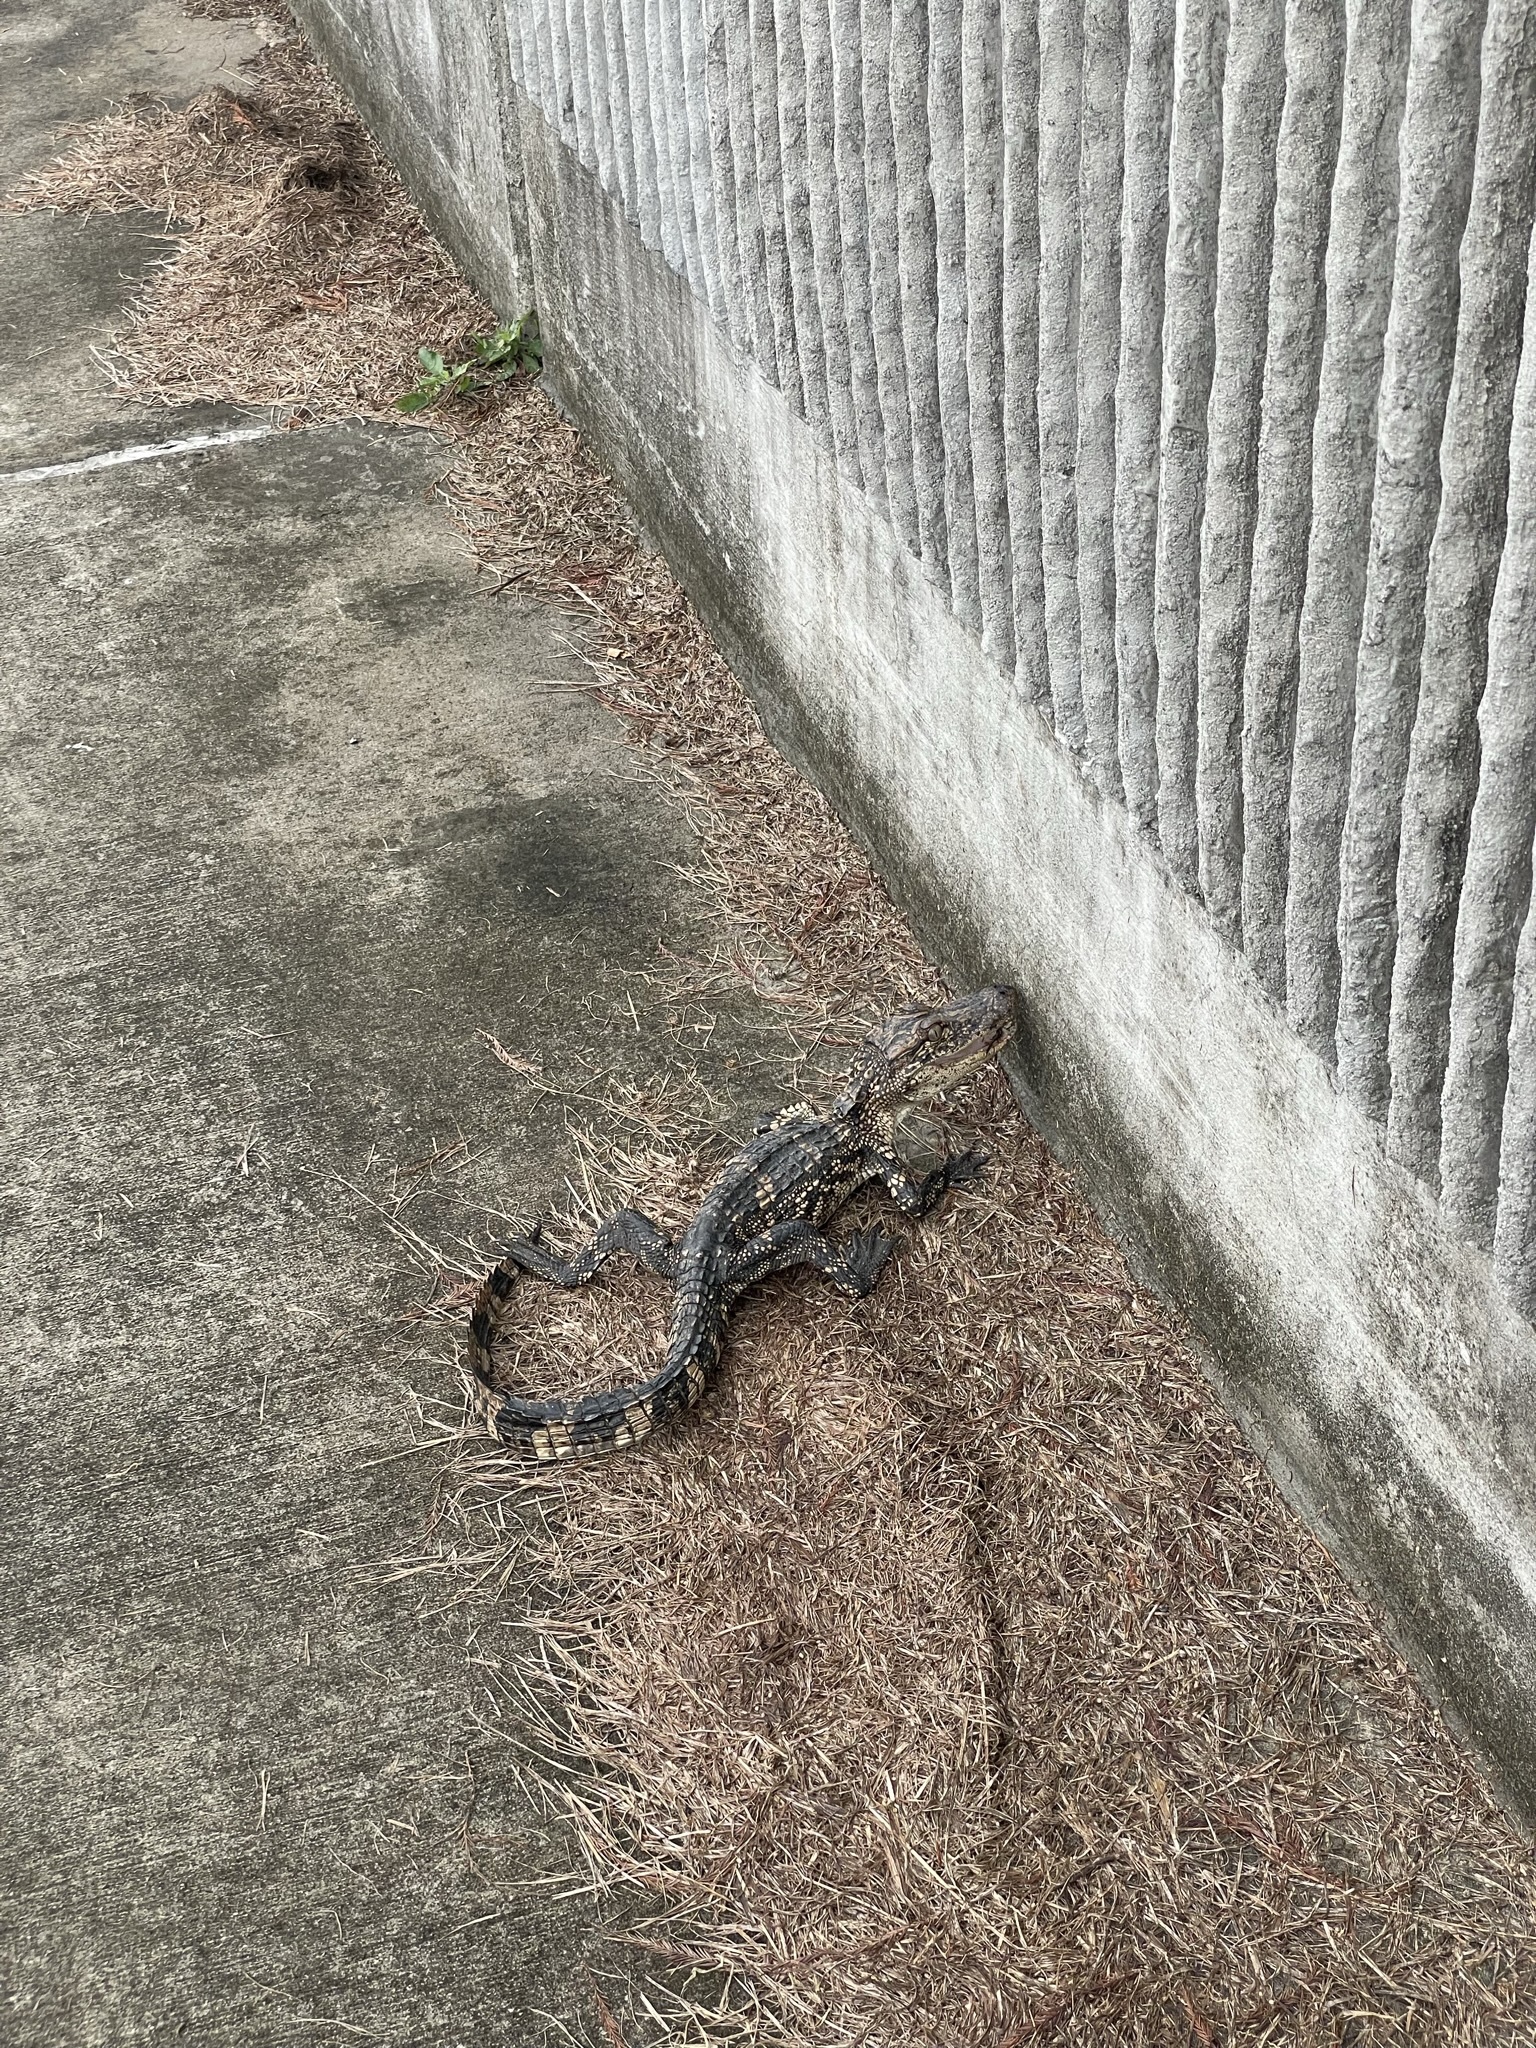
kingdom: Animalia
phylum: Chordata
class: Crocodylia
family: Alligatoridae
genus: Alligator
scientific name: Alligator mississippiensis
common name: American alligator
